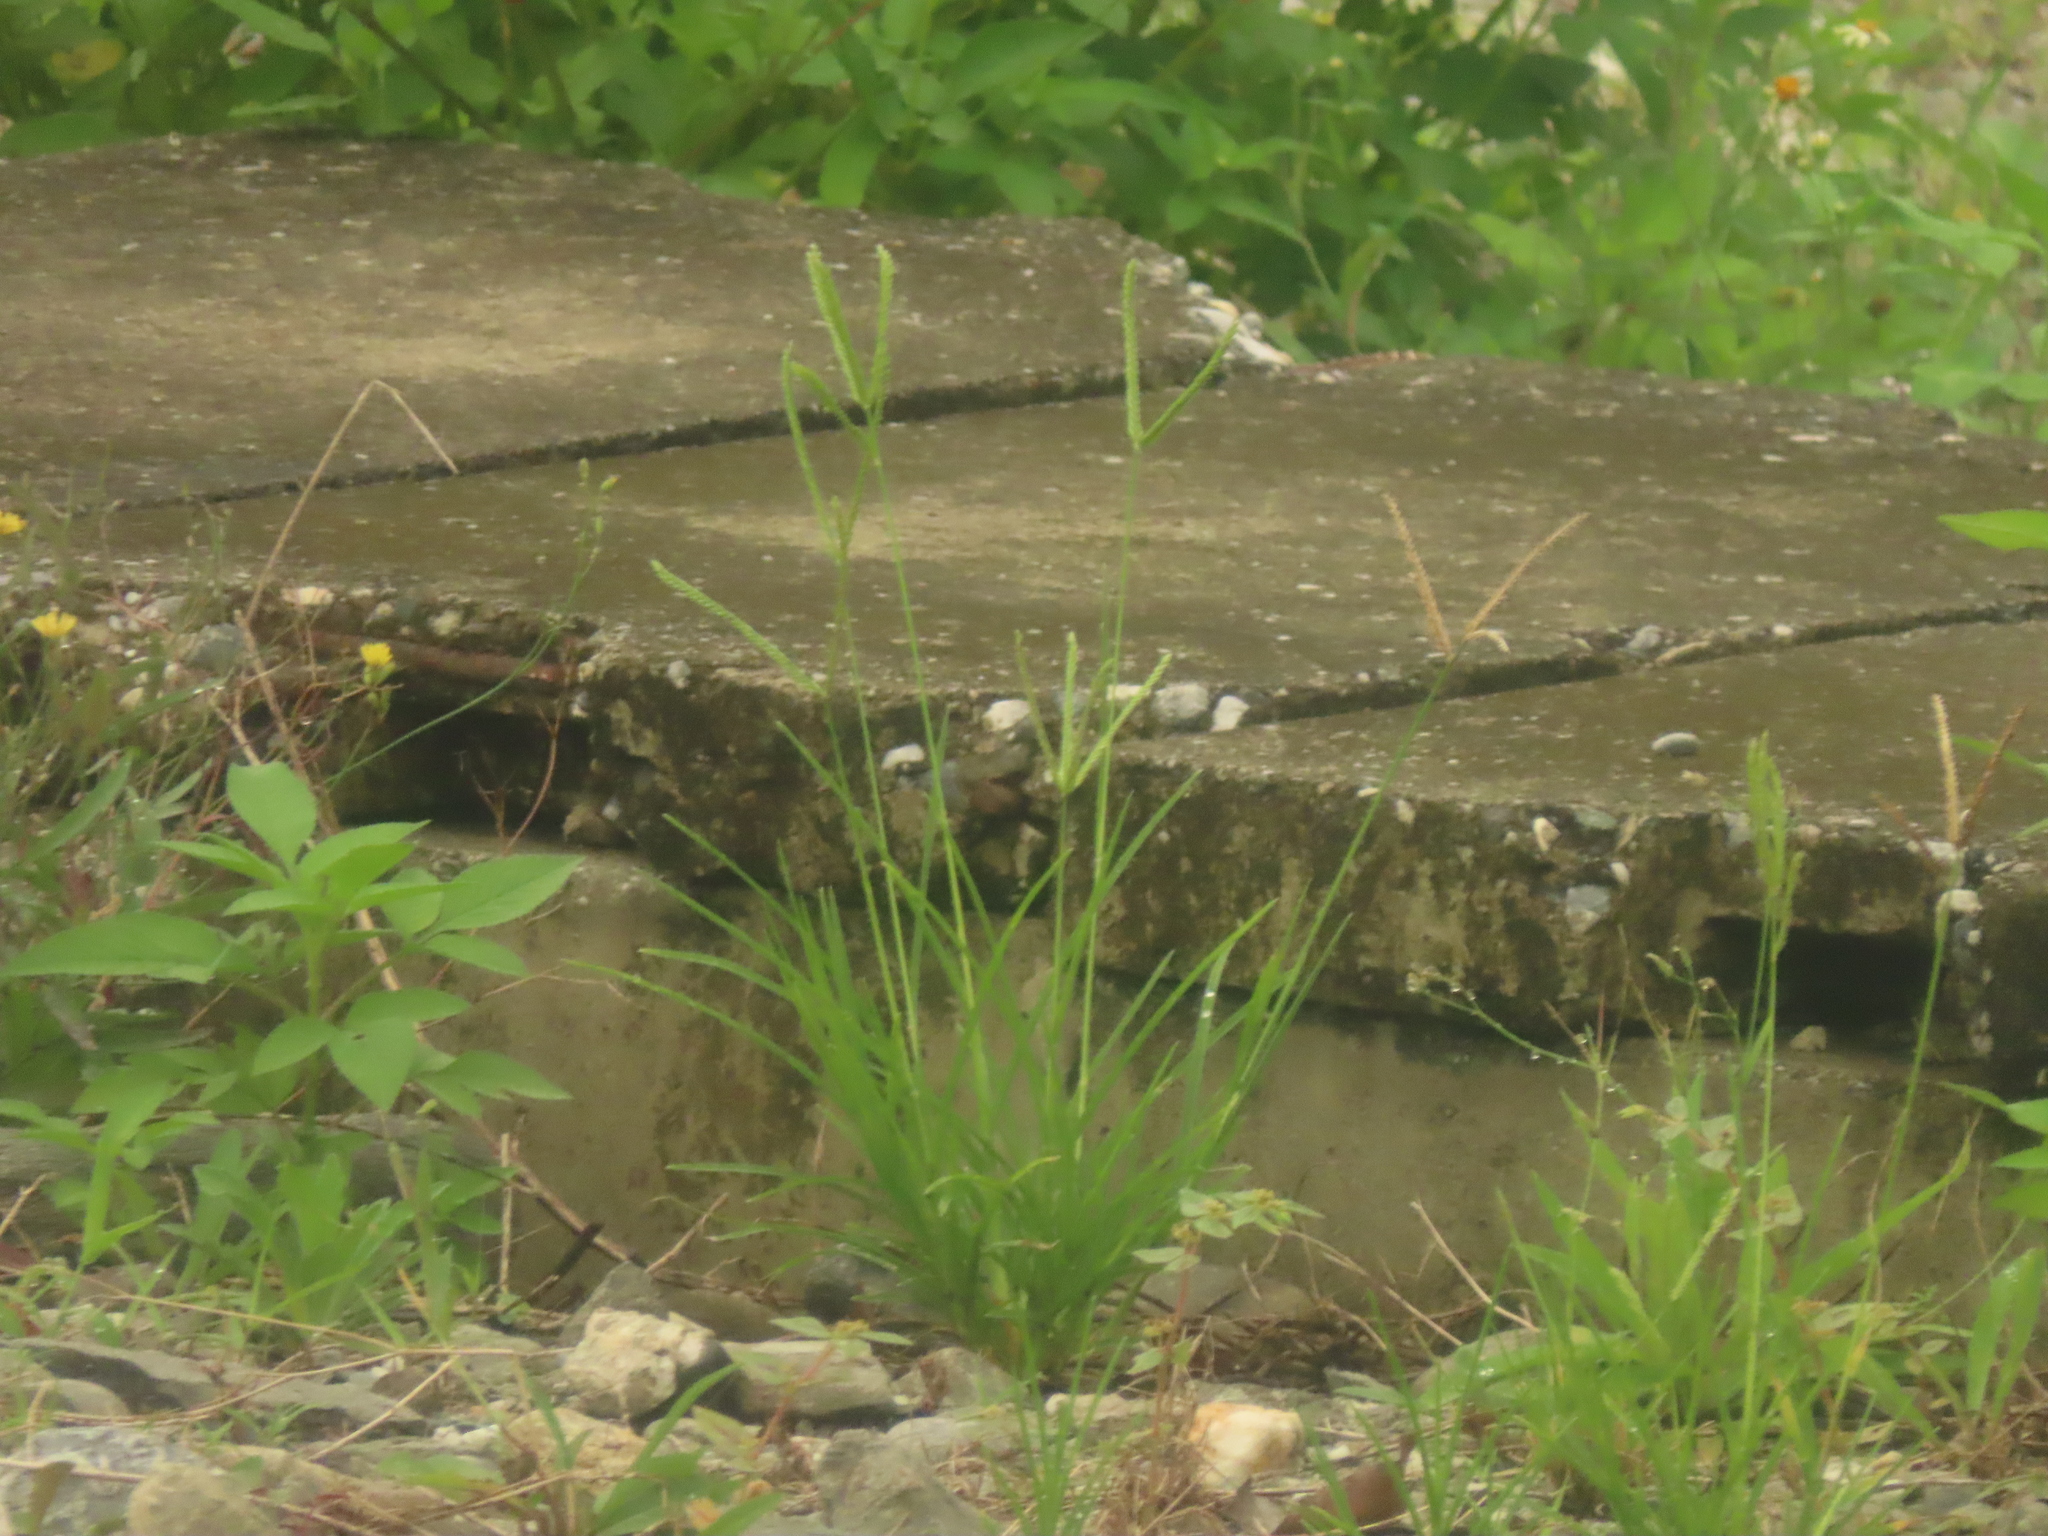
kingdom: Plantae
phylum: Tracheophyta
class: Liliopsida
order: Poales
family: Poaceae
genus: Eleusine
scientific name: Eleusine indica
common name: Yard-grass
